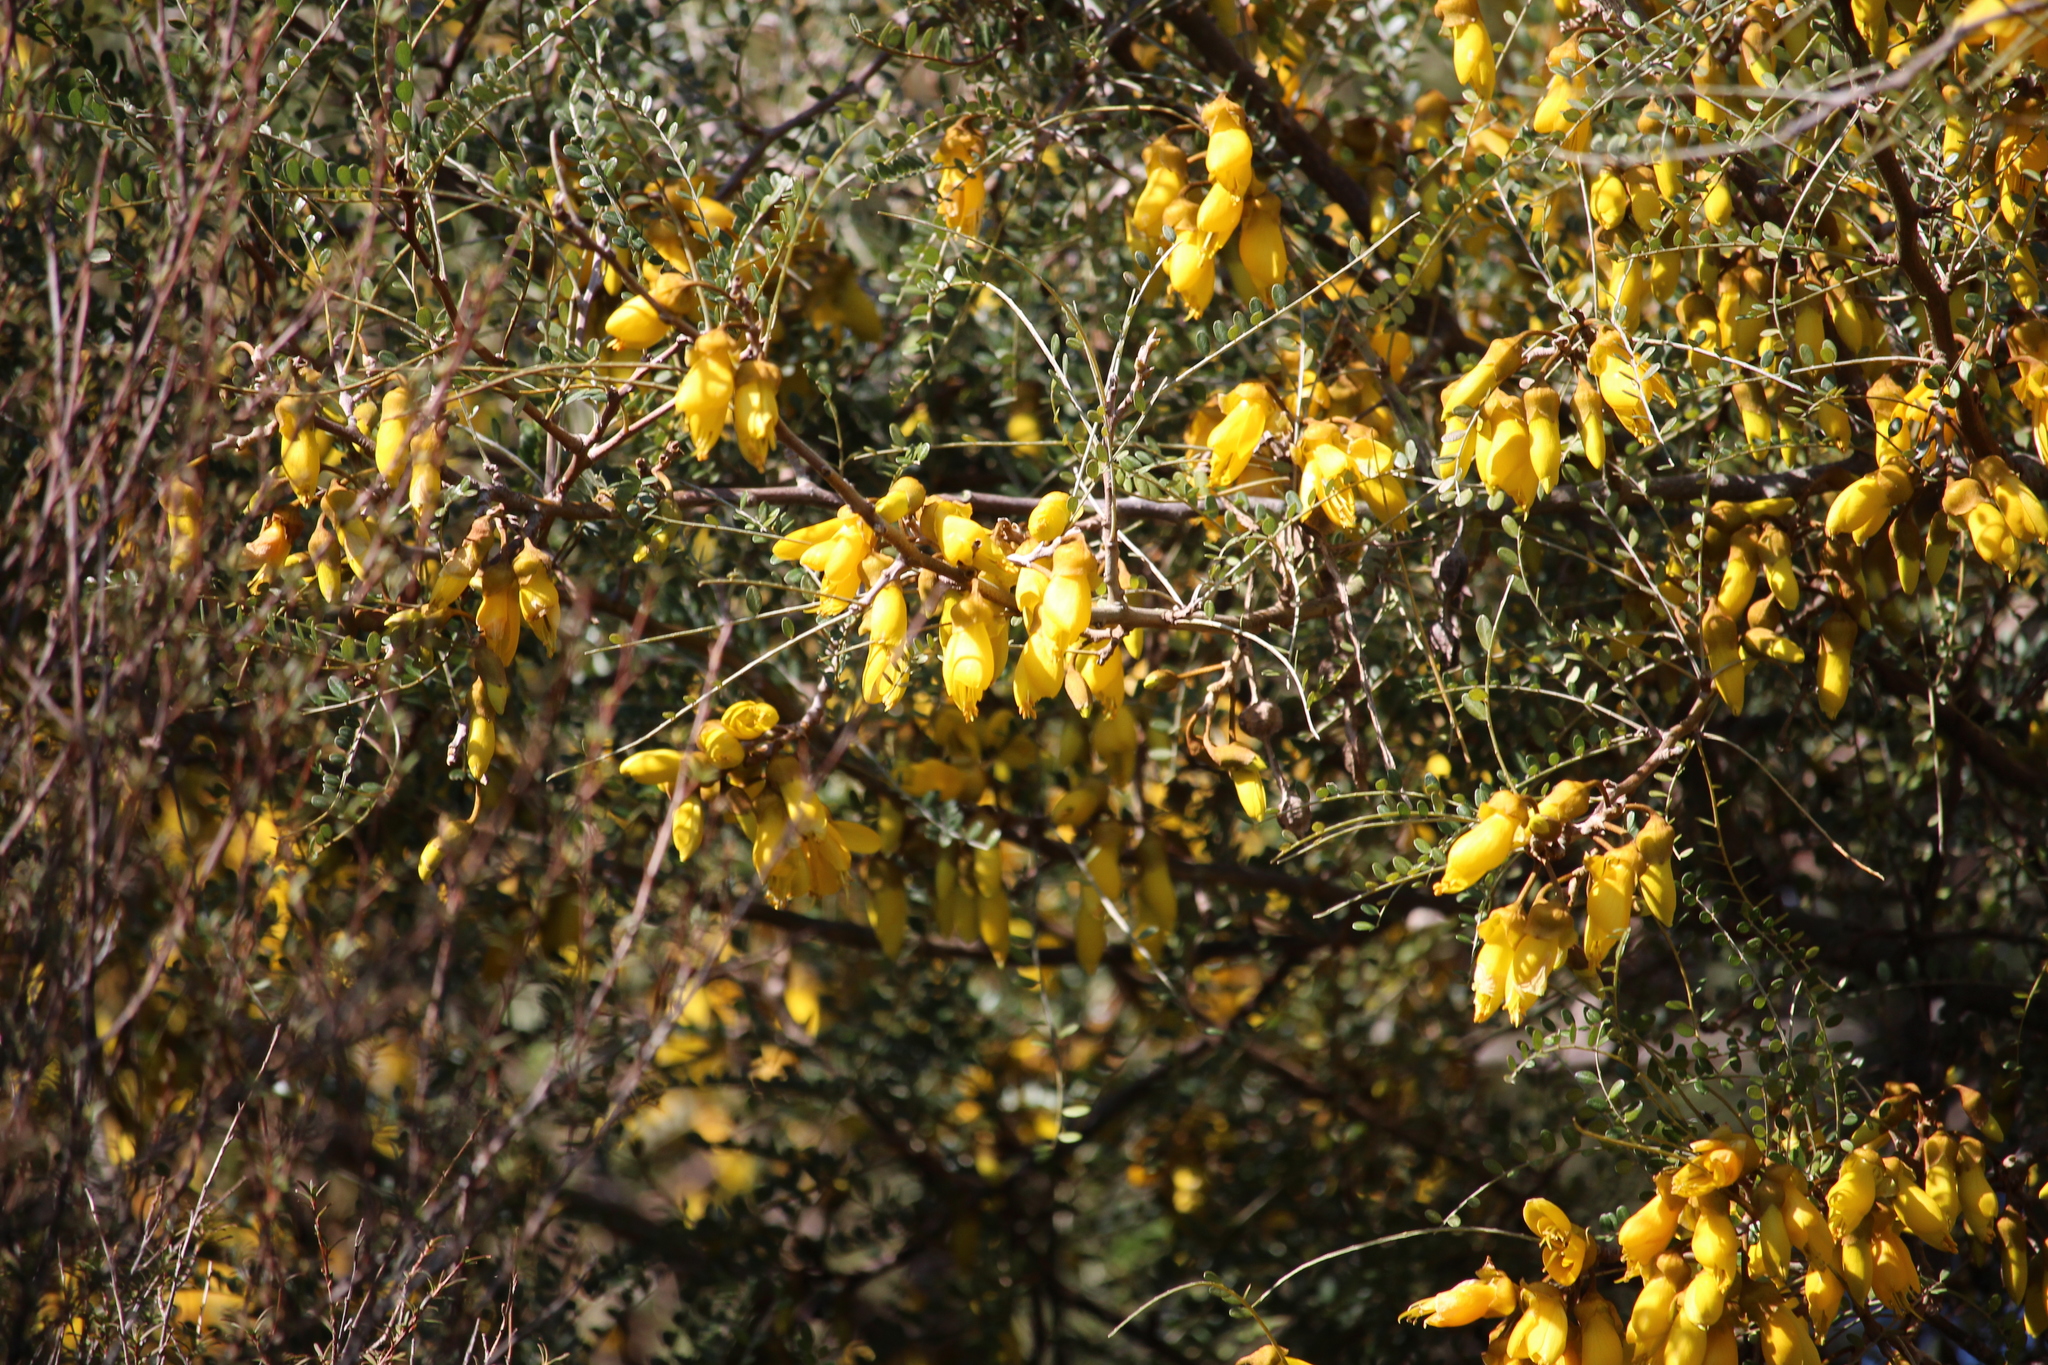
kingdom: Plantae
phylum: Tracheophyta
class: Magnoliopsida
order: Fabales
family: Fabaceae
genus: Sophora
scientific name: Sophora microphylla
